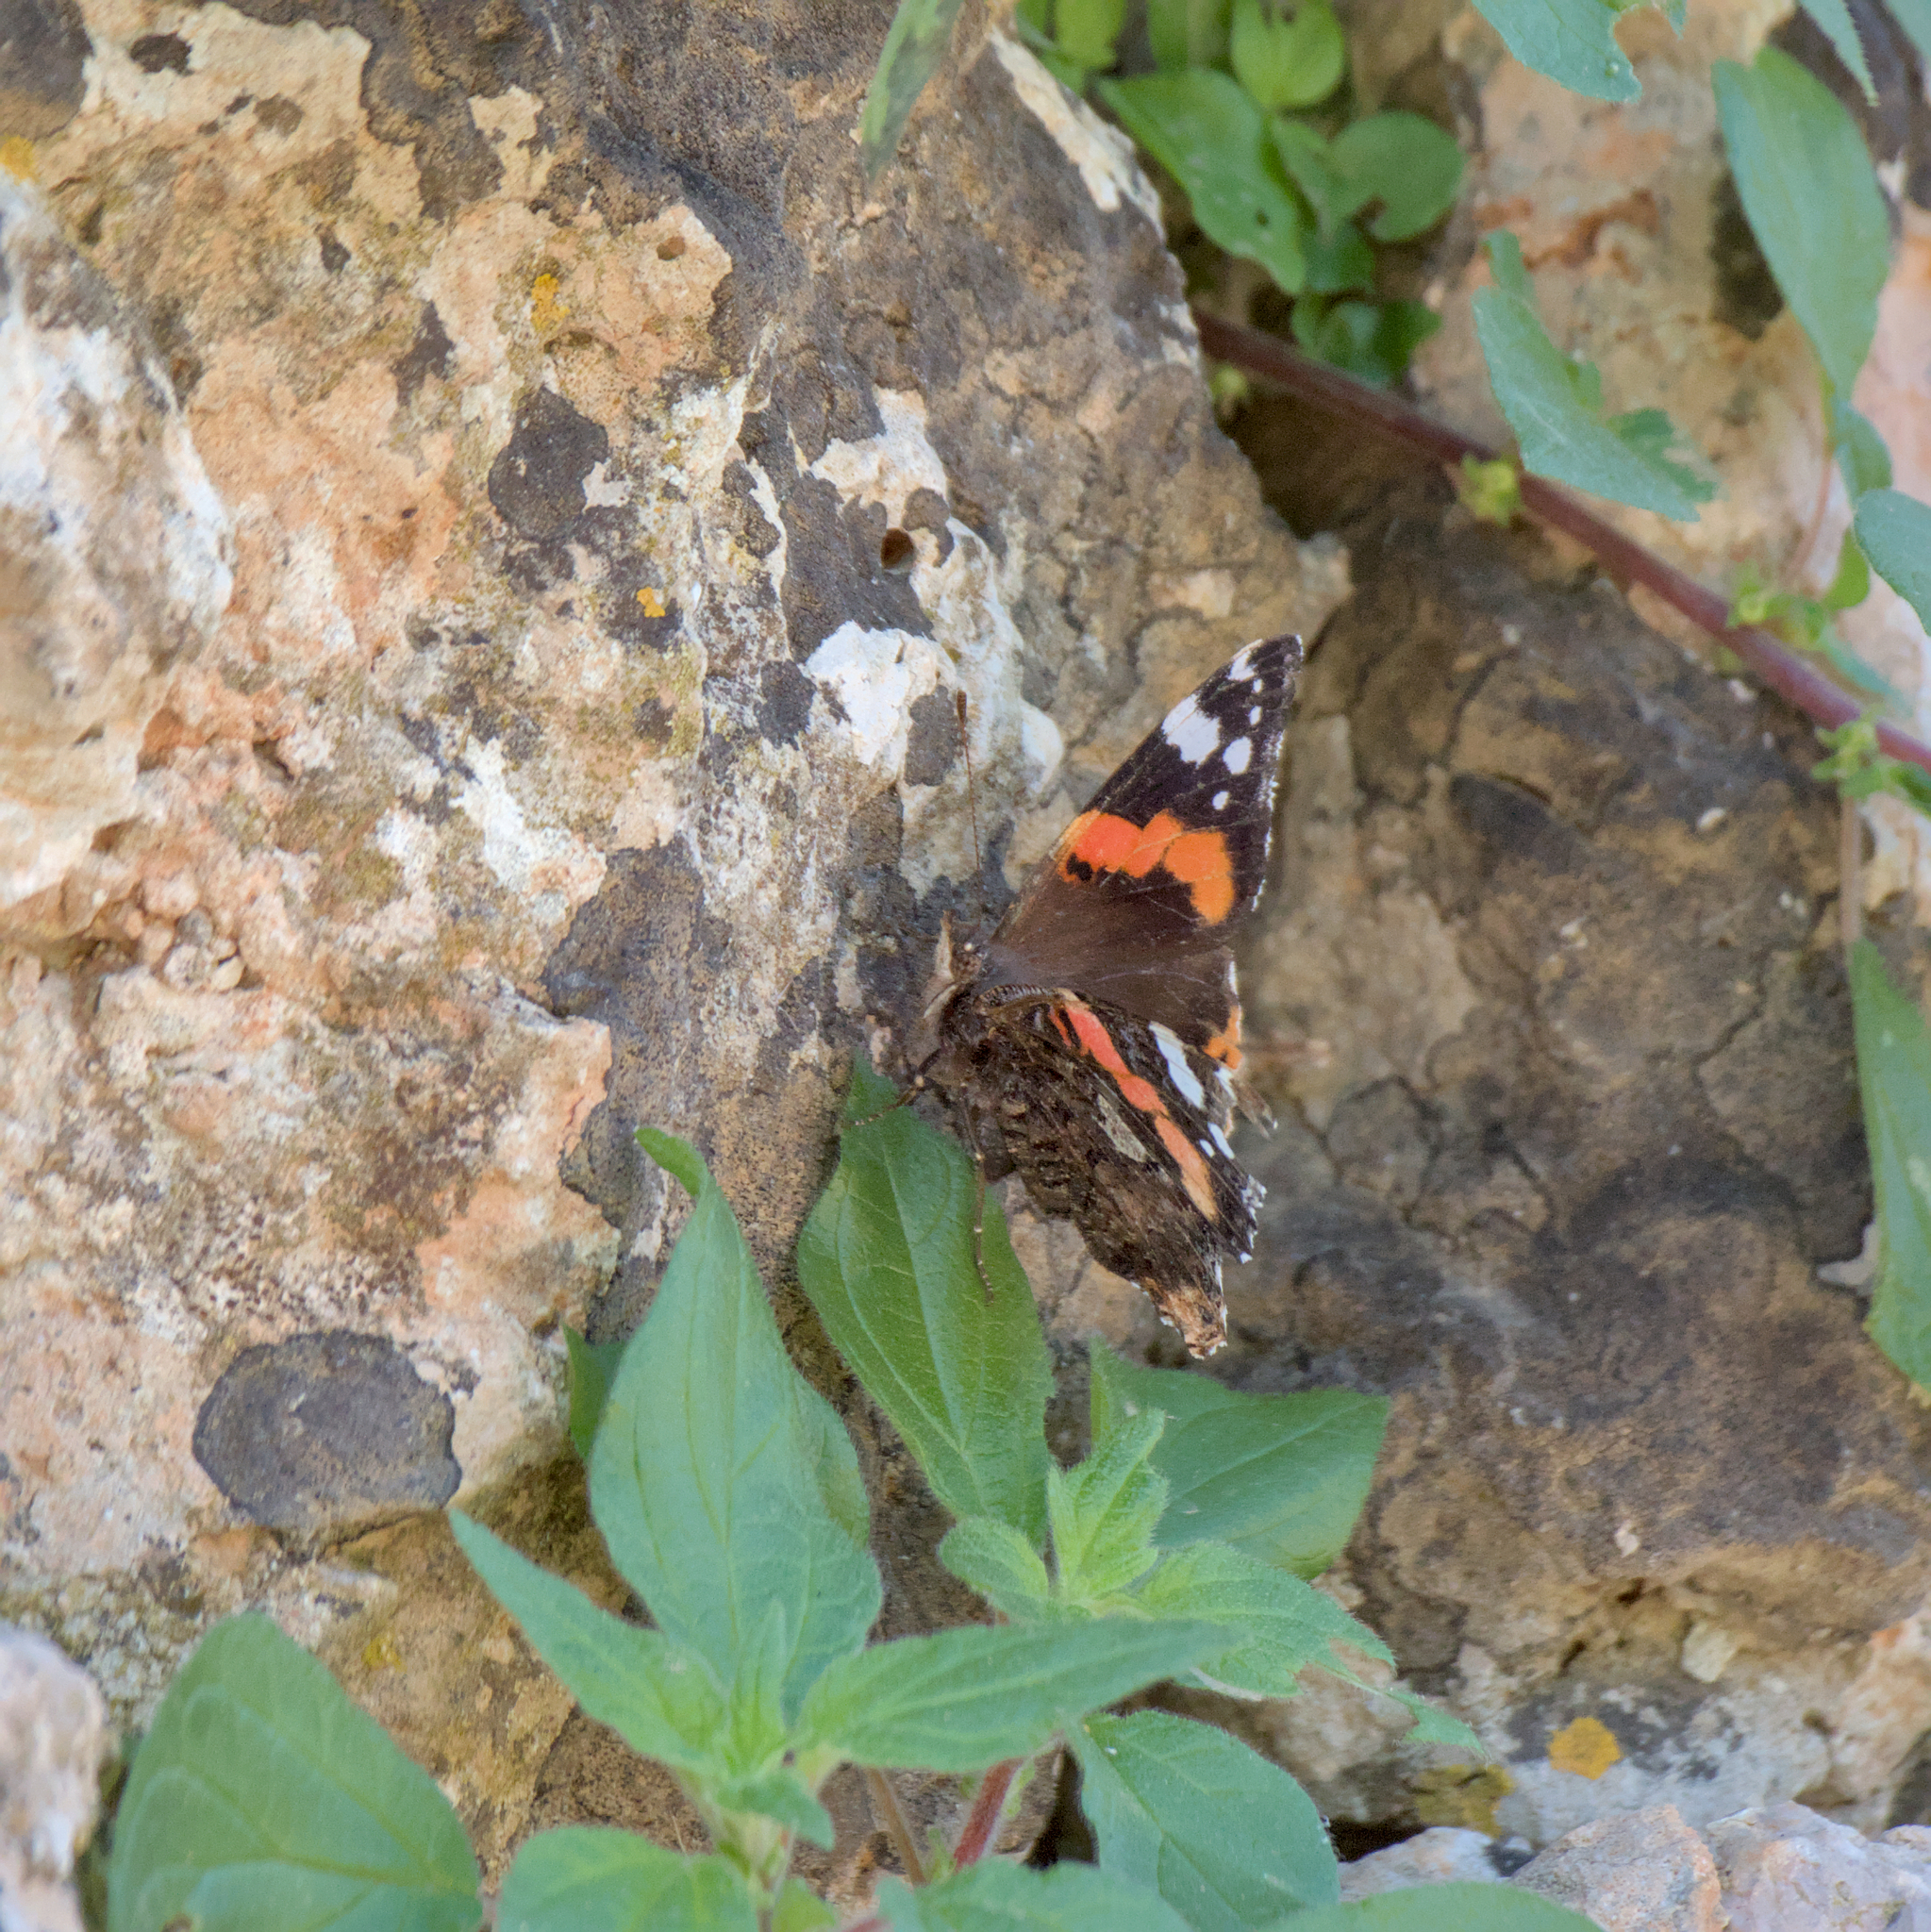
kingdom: Animalia
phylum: Arthropoda
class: Insecta
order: Lepidoptera
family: Nymphalidae
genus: Vanessa
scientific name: Vanessa atalanta
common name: Red admiral
